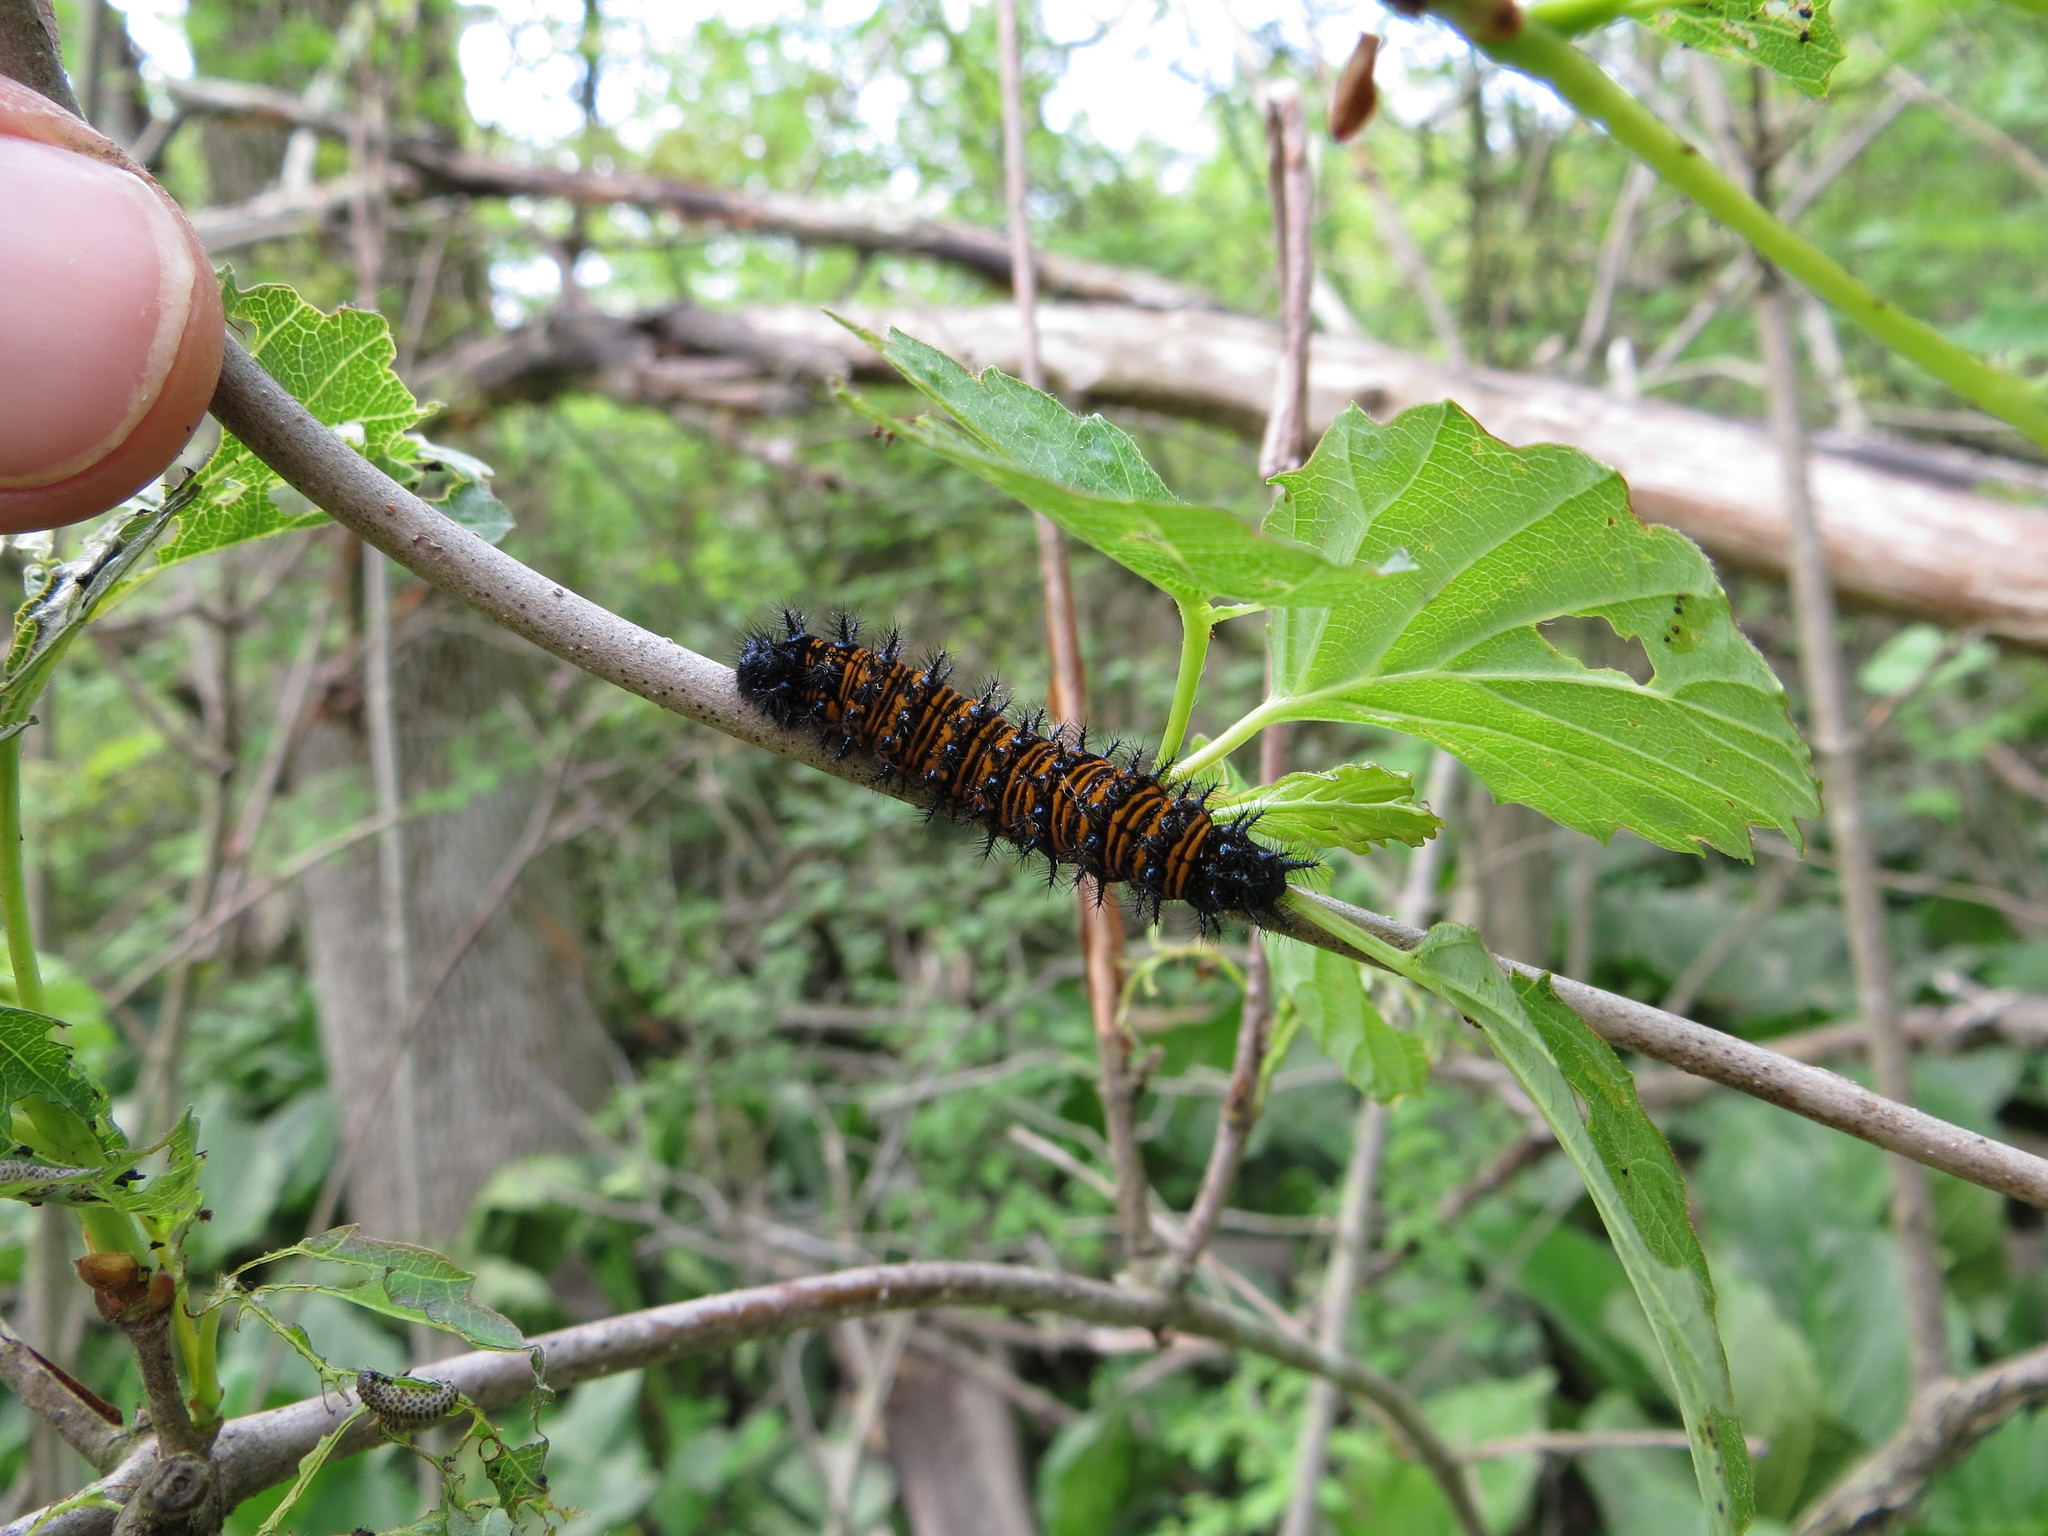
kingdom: Animalia
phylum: Arthropoda
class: Insecta
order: Lepidoptera
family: Nymphalidae
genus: Euphydryas
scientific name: Euphydryas phaeton
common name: Baltimore checkerspot
